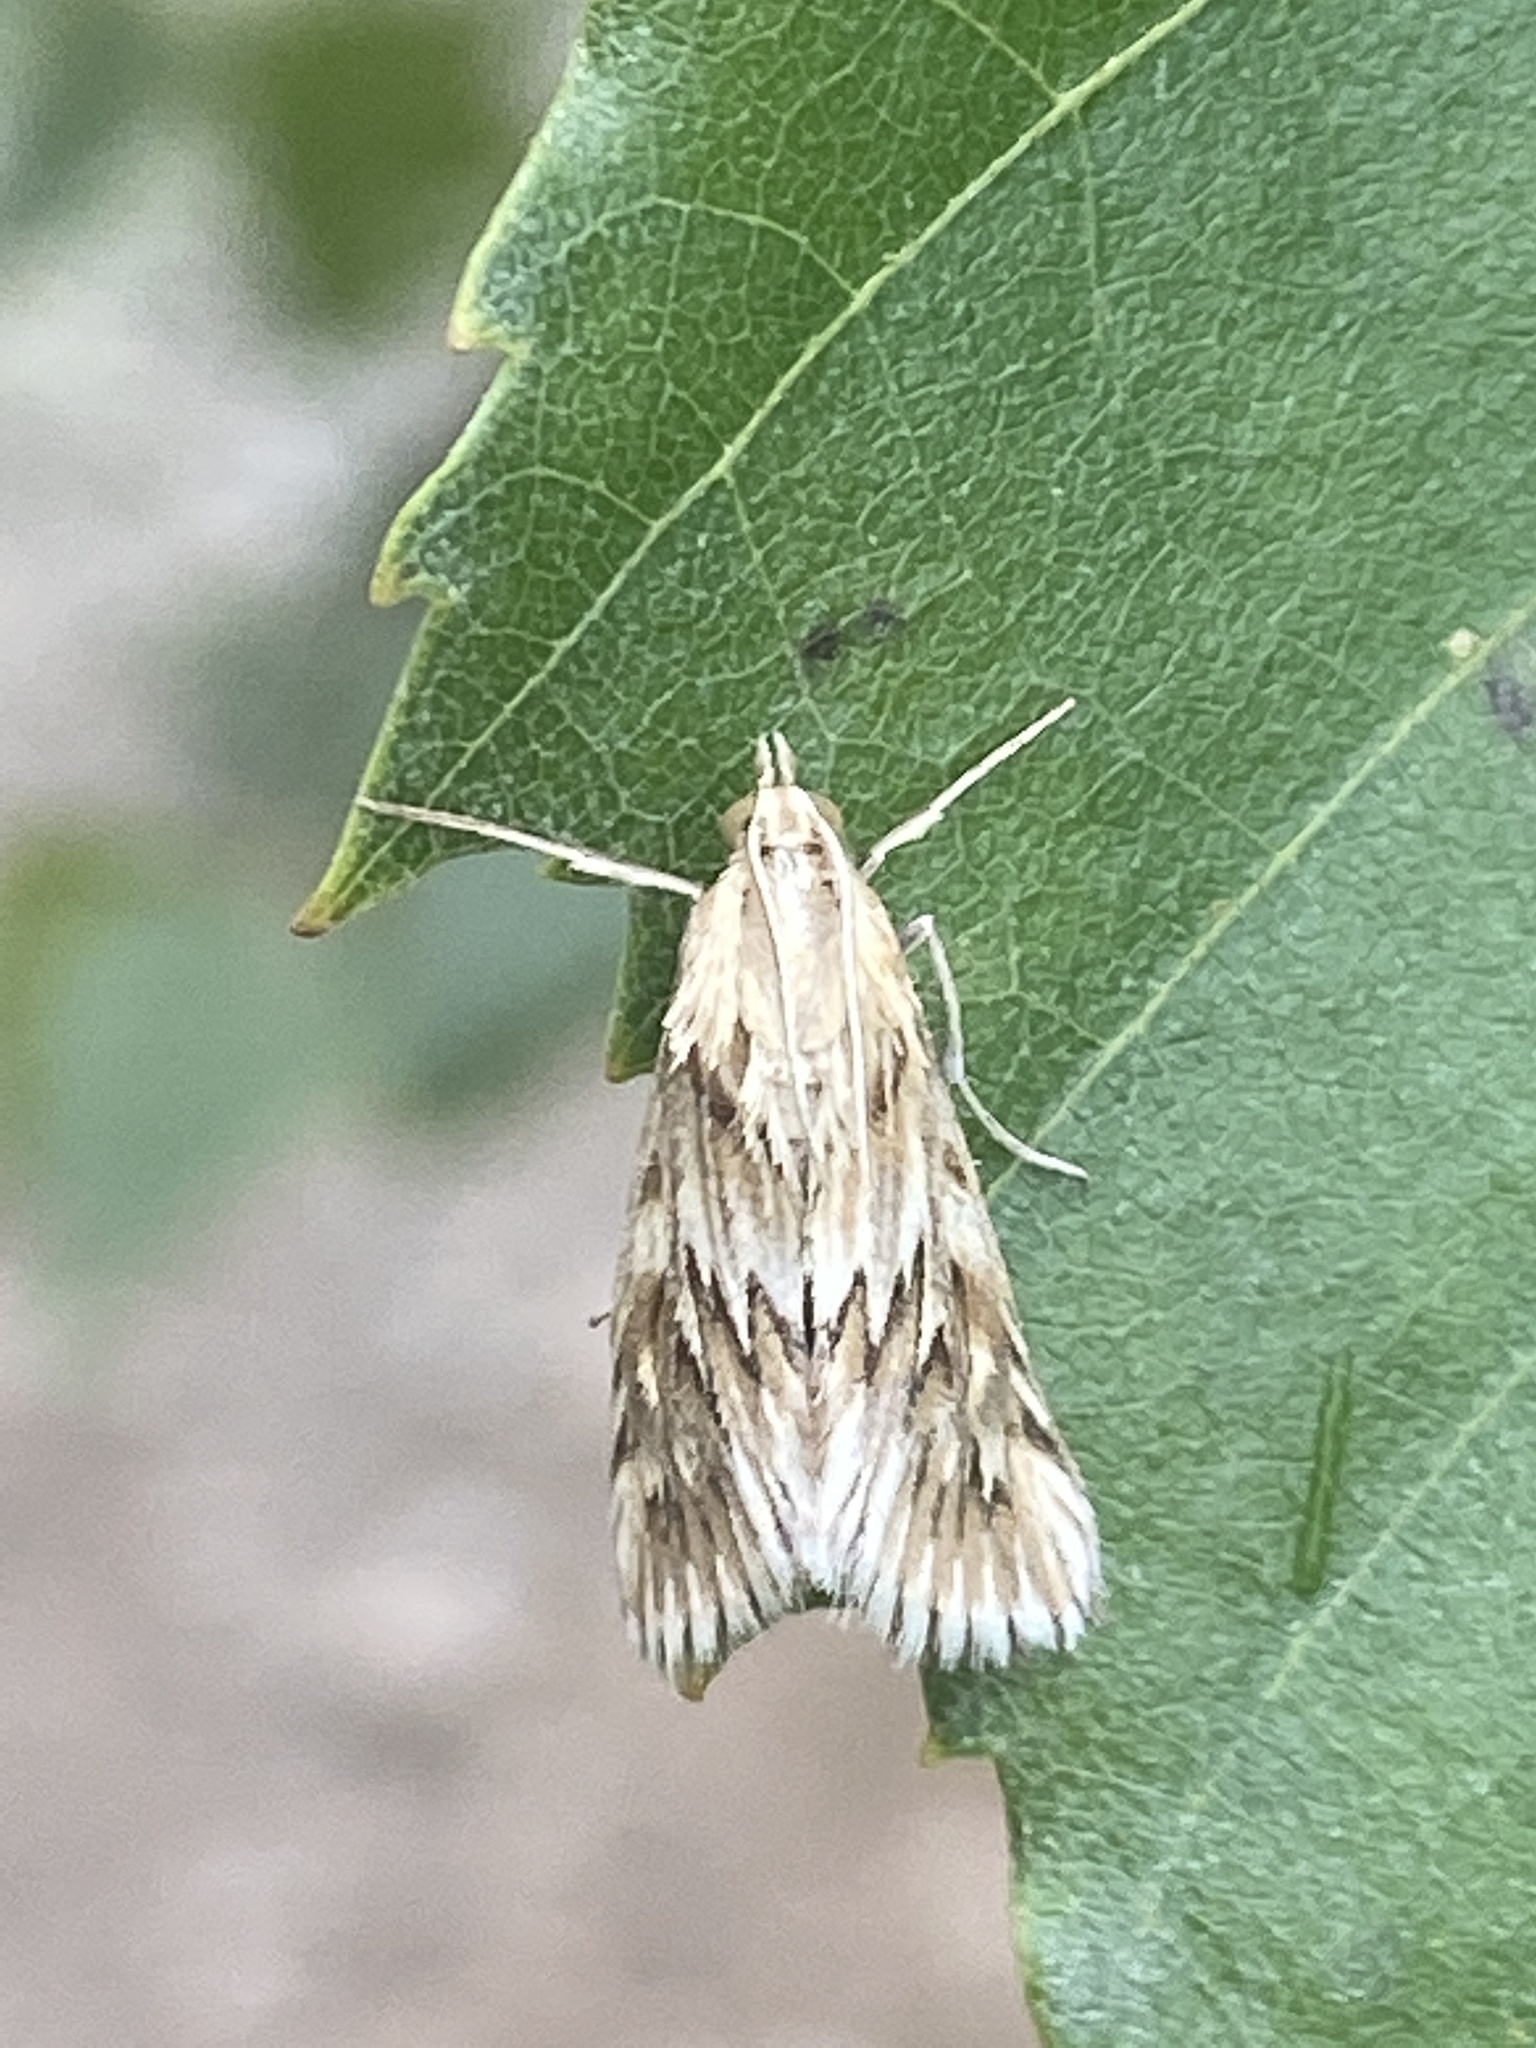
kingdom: Animalia
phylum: Arthropoda
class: Insecta
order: Lepidoptera
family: Crambidae
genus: Cynaeda
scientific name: Cynaeda dentalis
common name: Starry pearl
